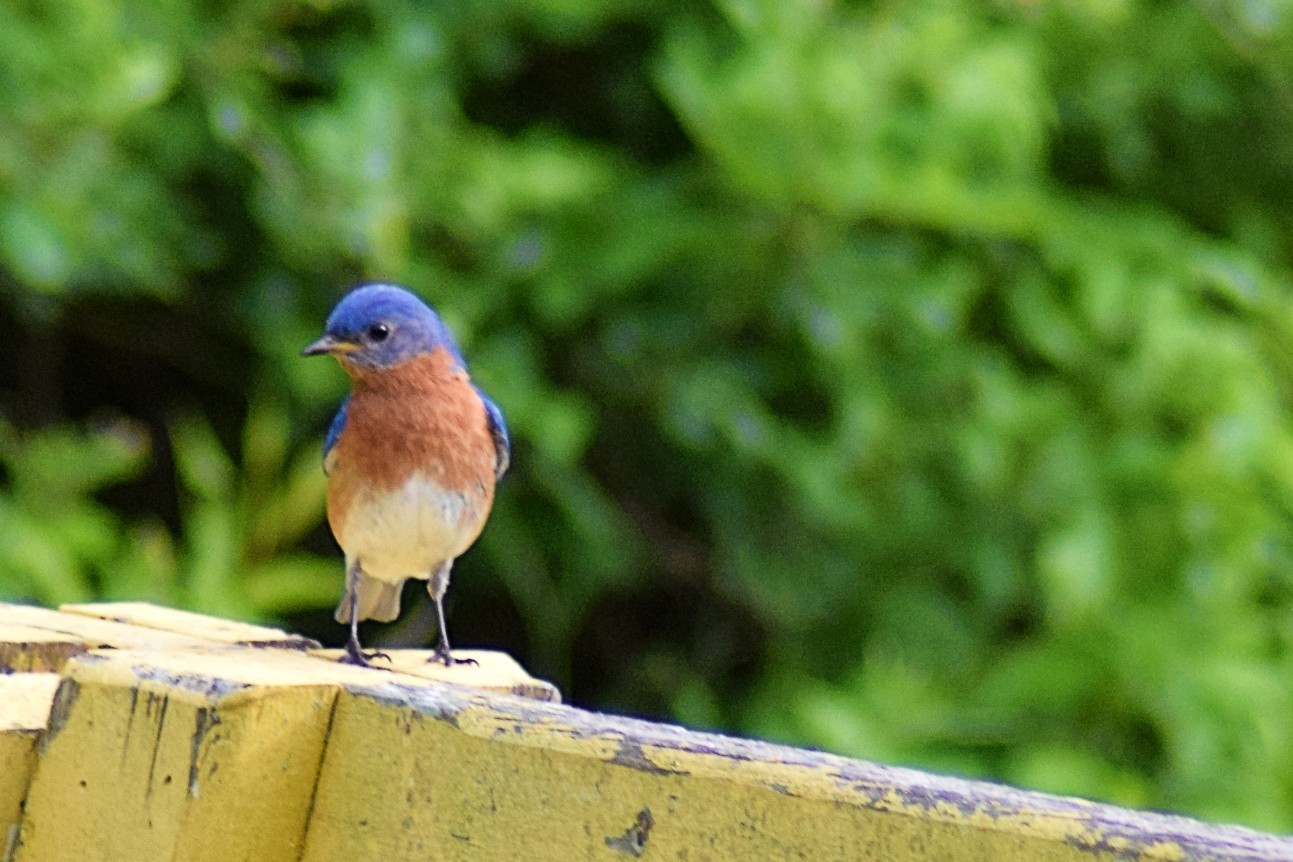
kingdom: Animalia
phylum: Chordata
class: Aves
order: Passeriformes
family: Turdidae
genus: Sialia
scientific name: Sialia sialis
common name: Eastern bluebird
